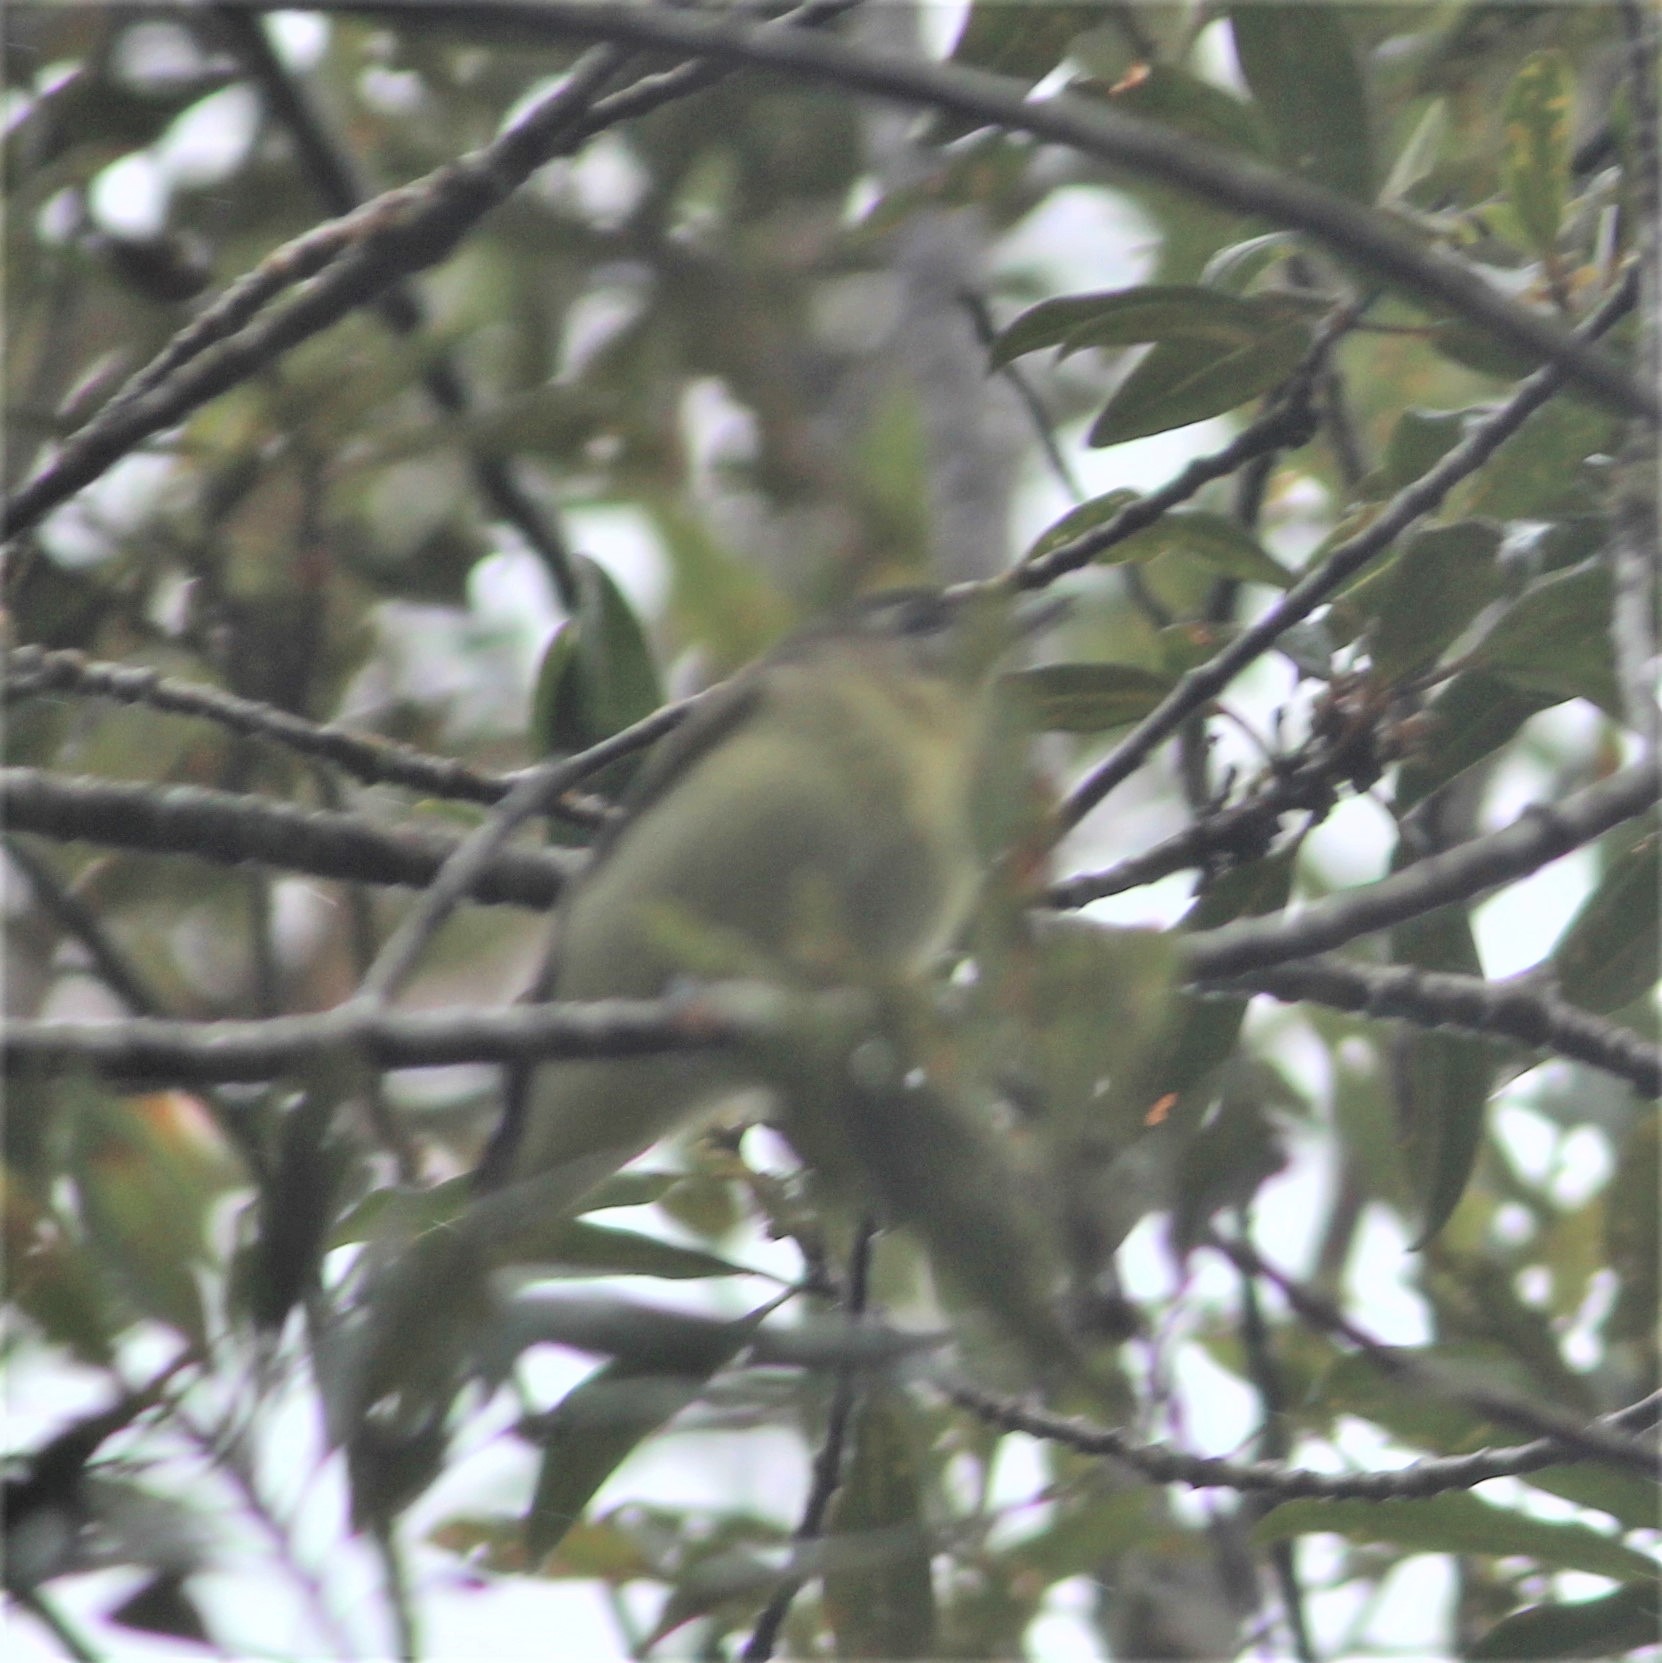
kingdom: Animalia
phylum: Chordata
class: Aves
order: Passeriformes
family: Vireonidae
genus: Vireo
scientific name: Vireo philadelphicus
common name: Philadelphia vireo
